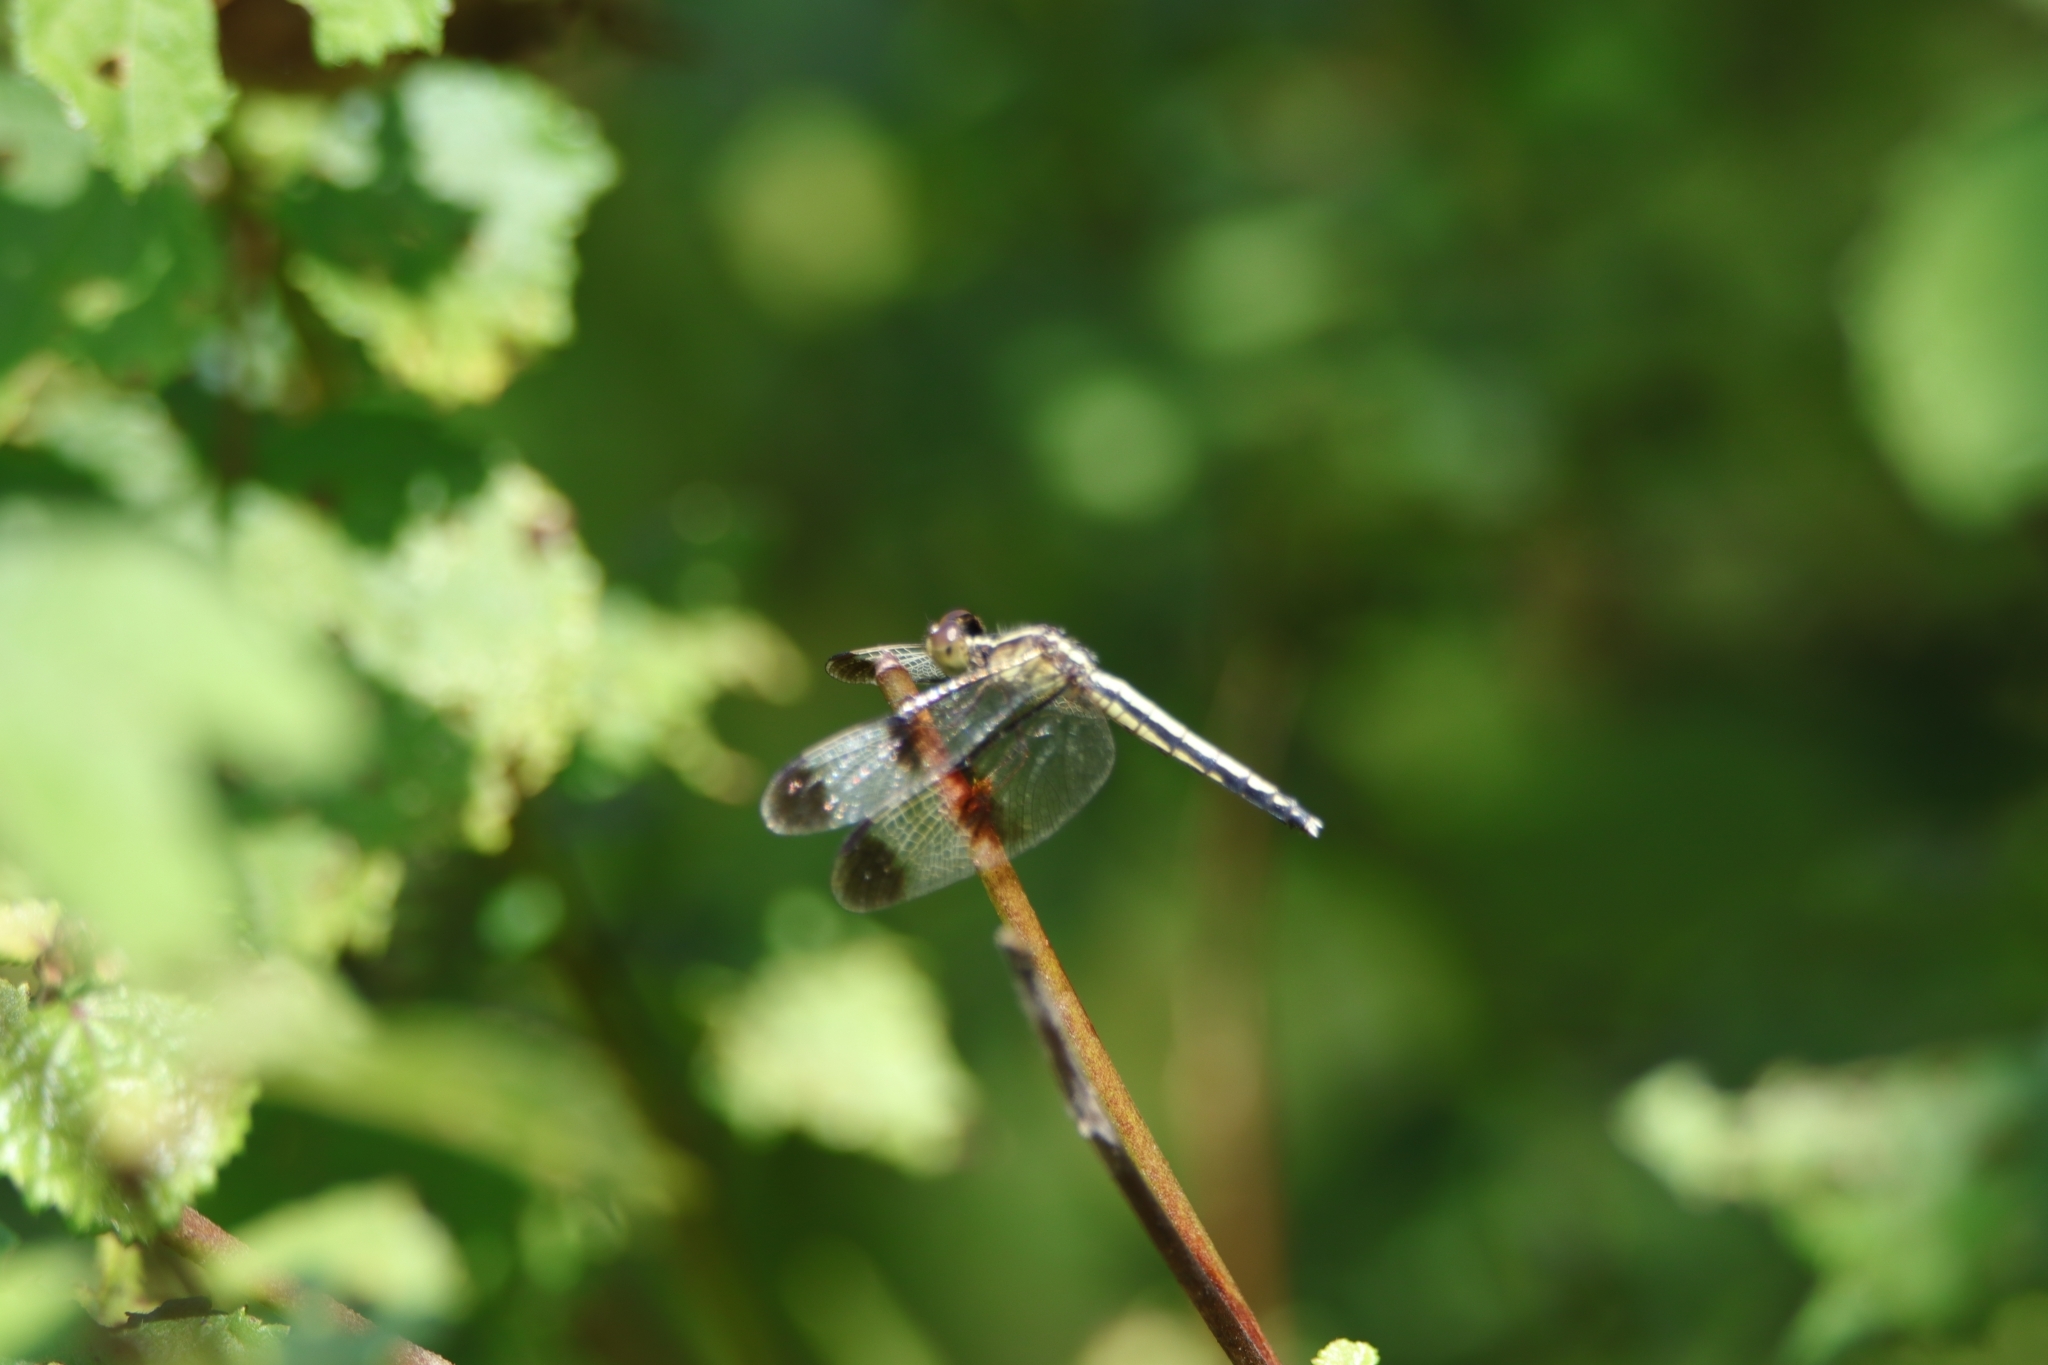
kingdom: Animalia
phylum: Arthropoda
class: Insecta
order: Odonata
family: Libellulidae
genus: Neurothemis
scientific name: Neurothemis tullia
